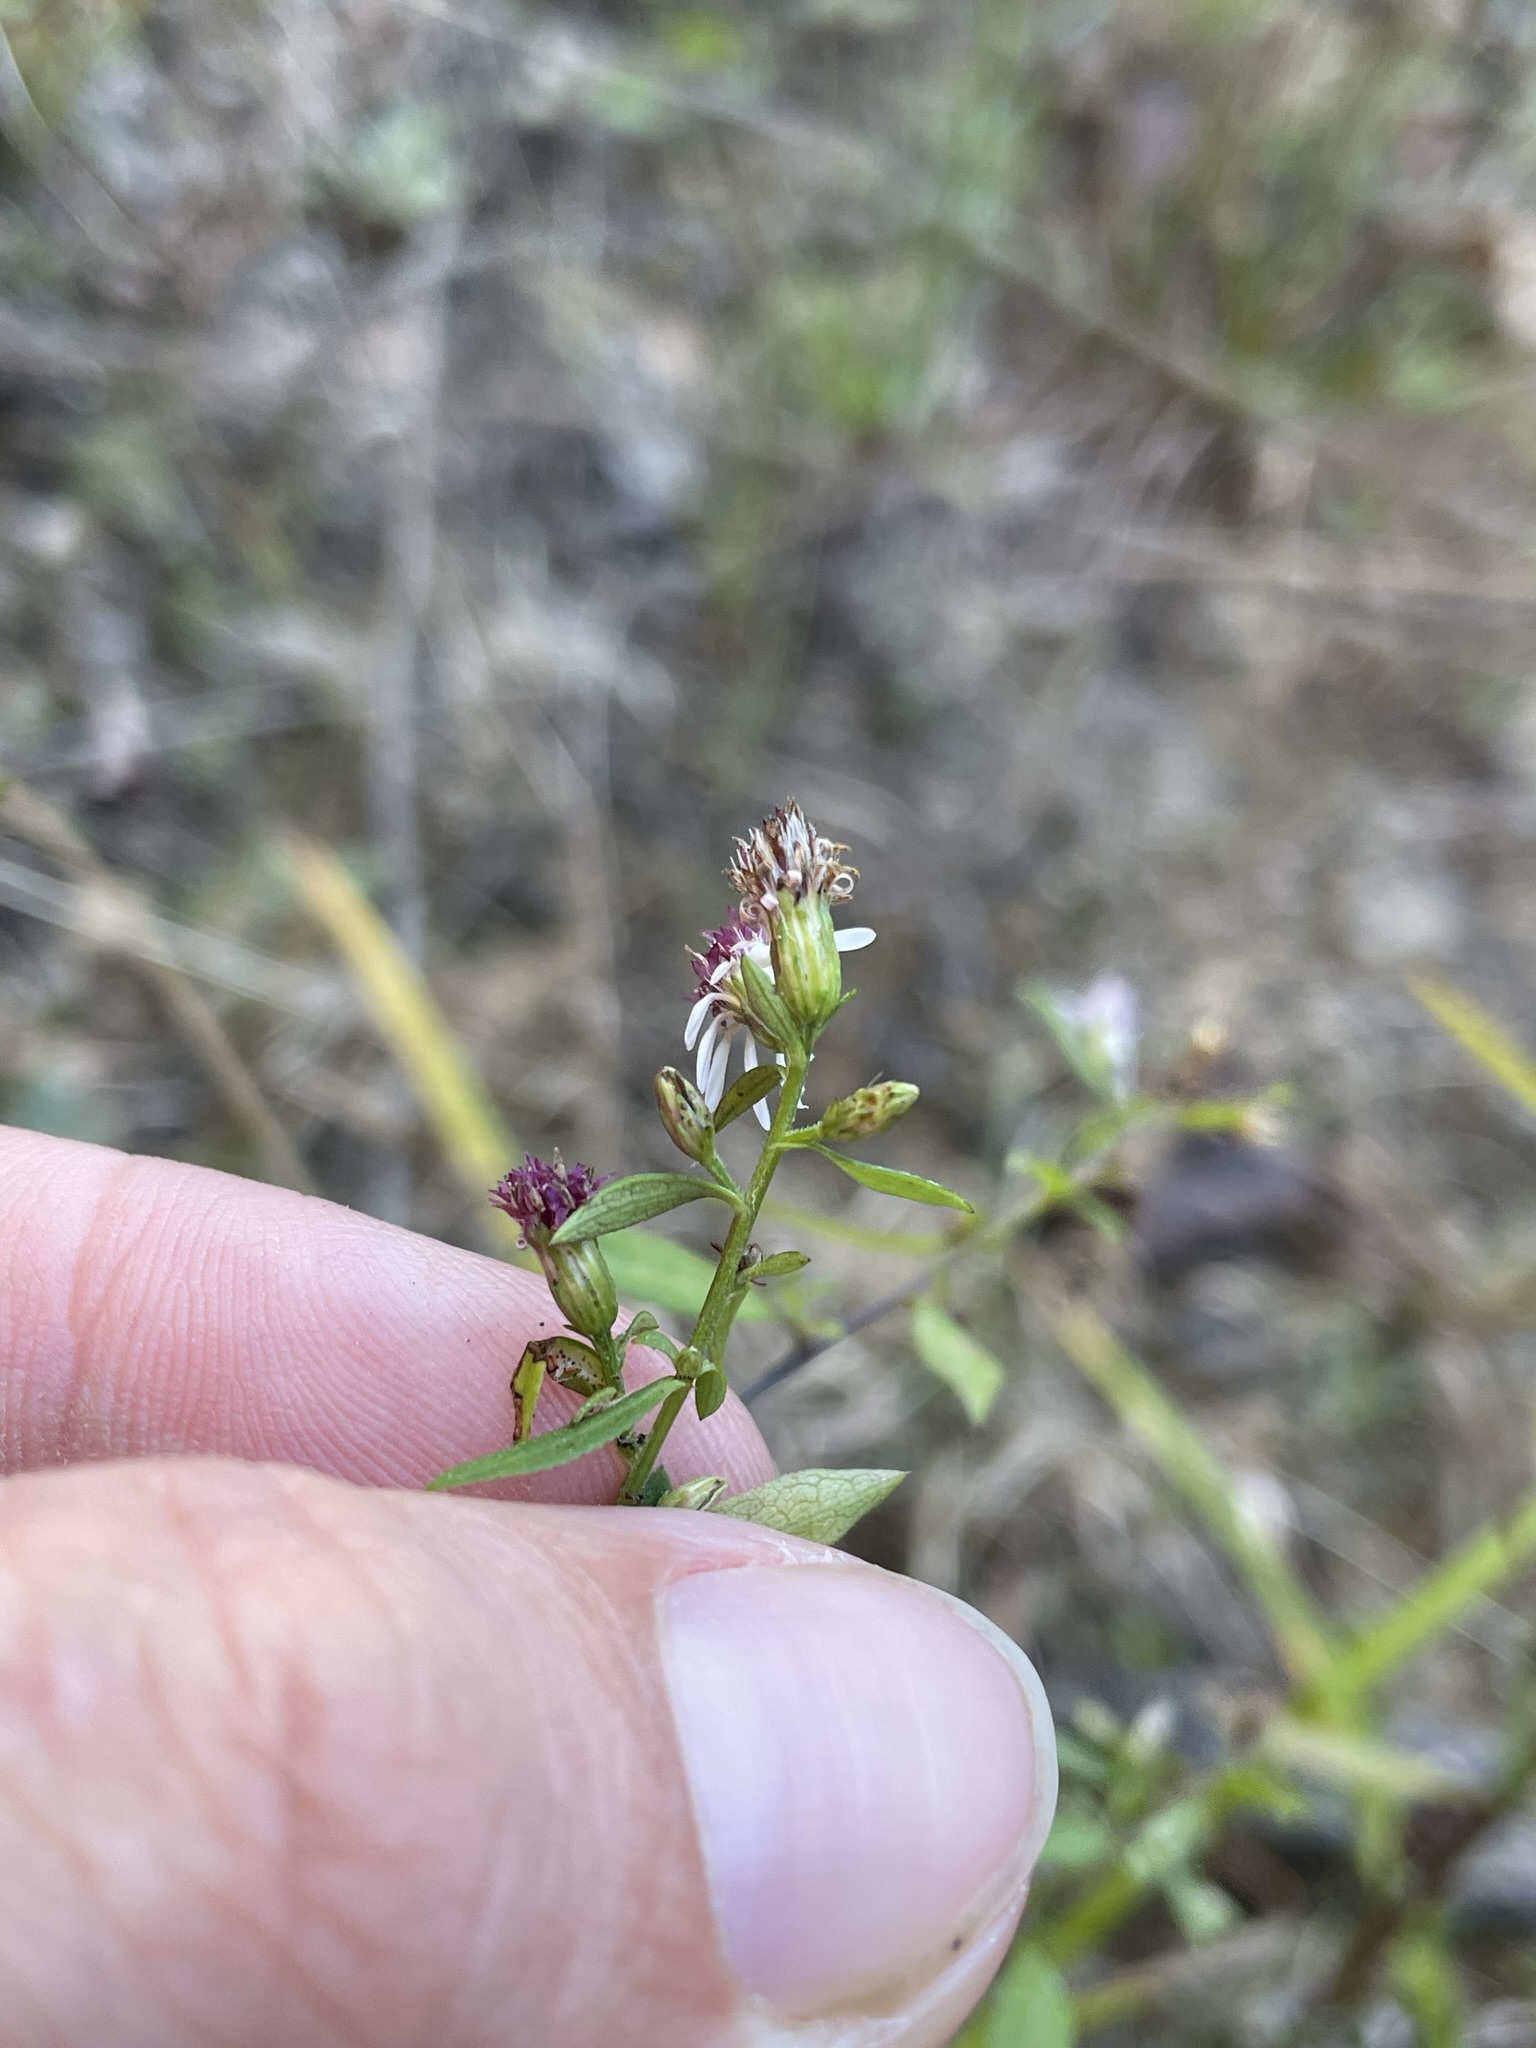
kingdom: Plantae
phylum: Tracheophyta
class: Magnoliopsida
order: Asterales
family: Asteraceae
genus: Symphyotrichum
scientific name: Symphyotrichum lateriflorum
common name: Calico aster
